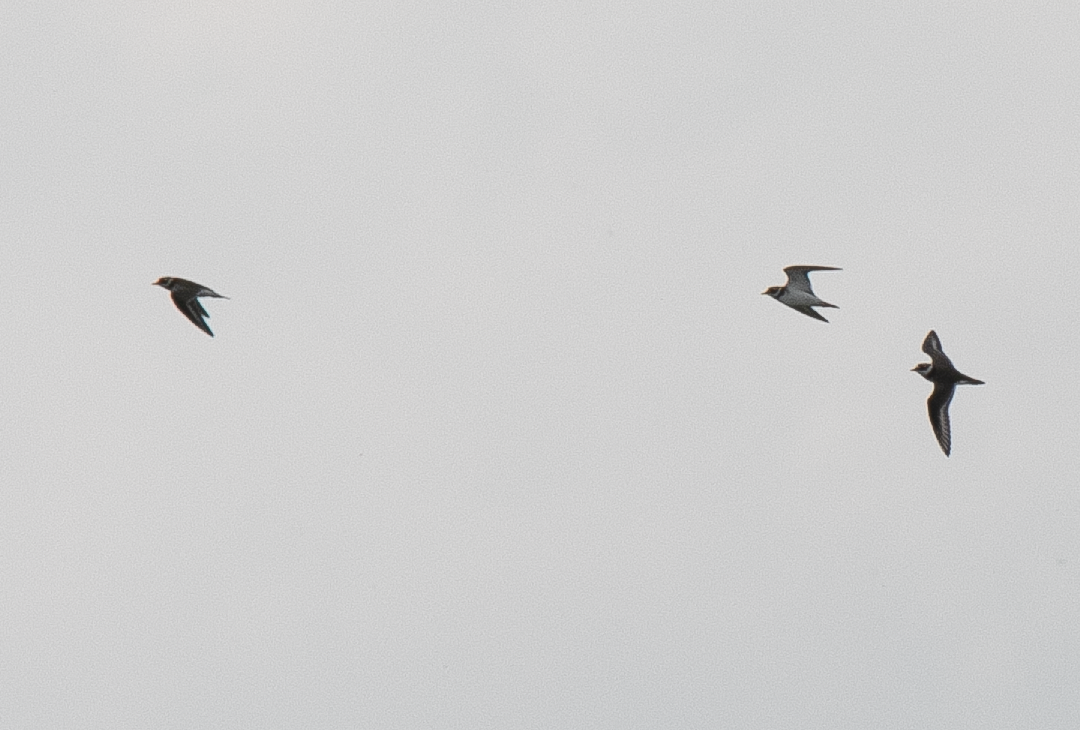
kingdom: Animalia
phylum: Chordata
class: Aves
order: Charadriiformes
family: Charadriidae
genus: Charadrius
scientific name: Charadrius dubius
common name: Little ringed plover
